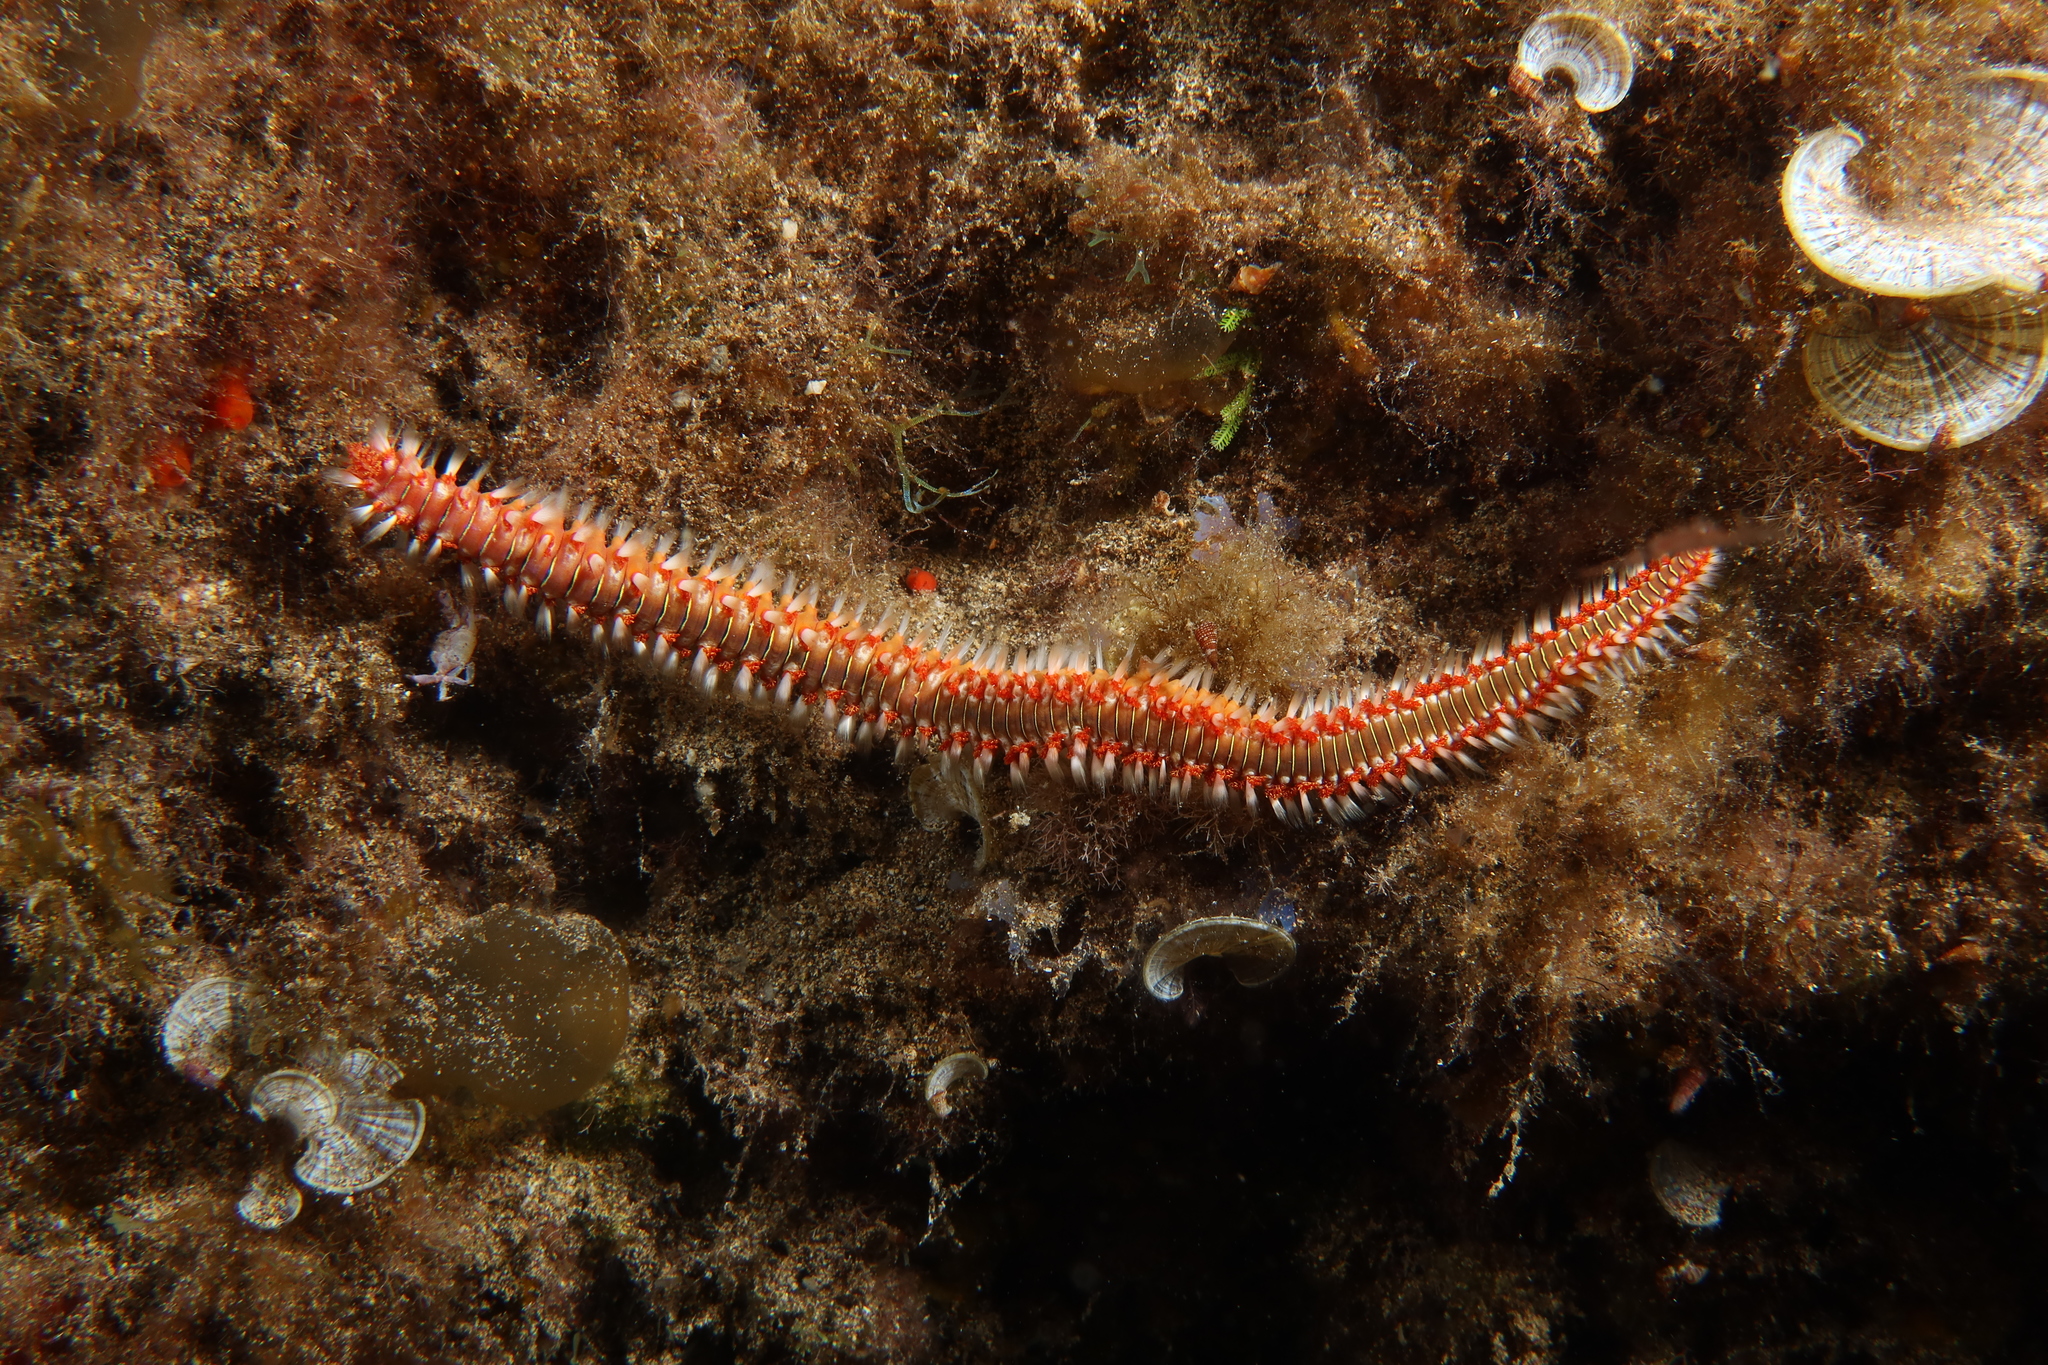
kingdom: Animalia
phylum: Annelida
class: Polychaeta
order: Amphinomida
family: Amphinomidae
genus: Hermodice
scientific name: Hermodice carunculata
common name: Bearded fireworm
